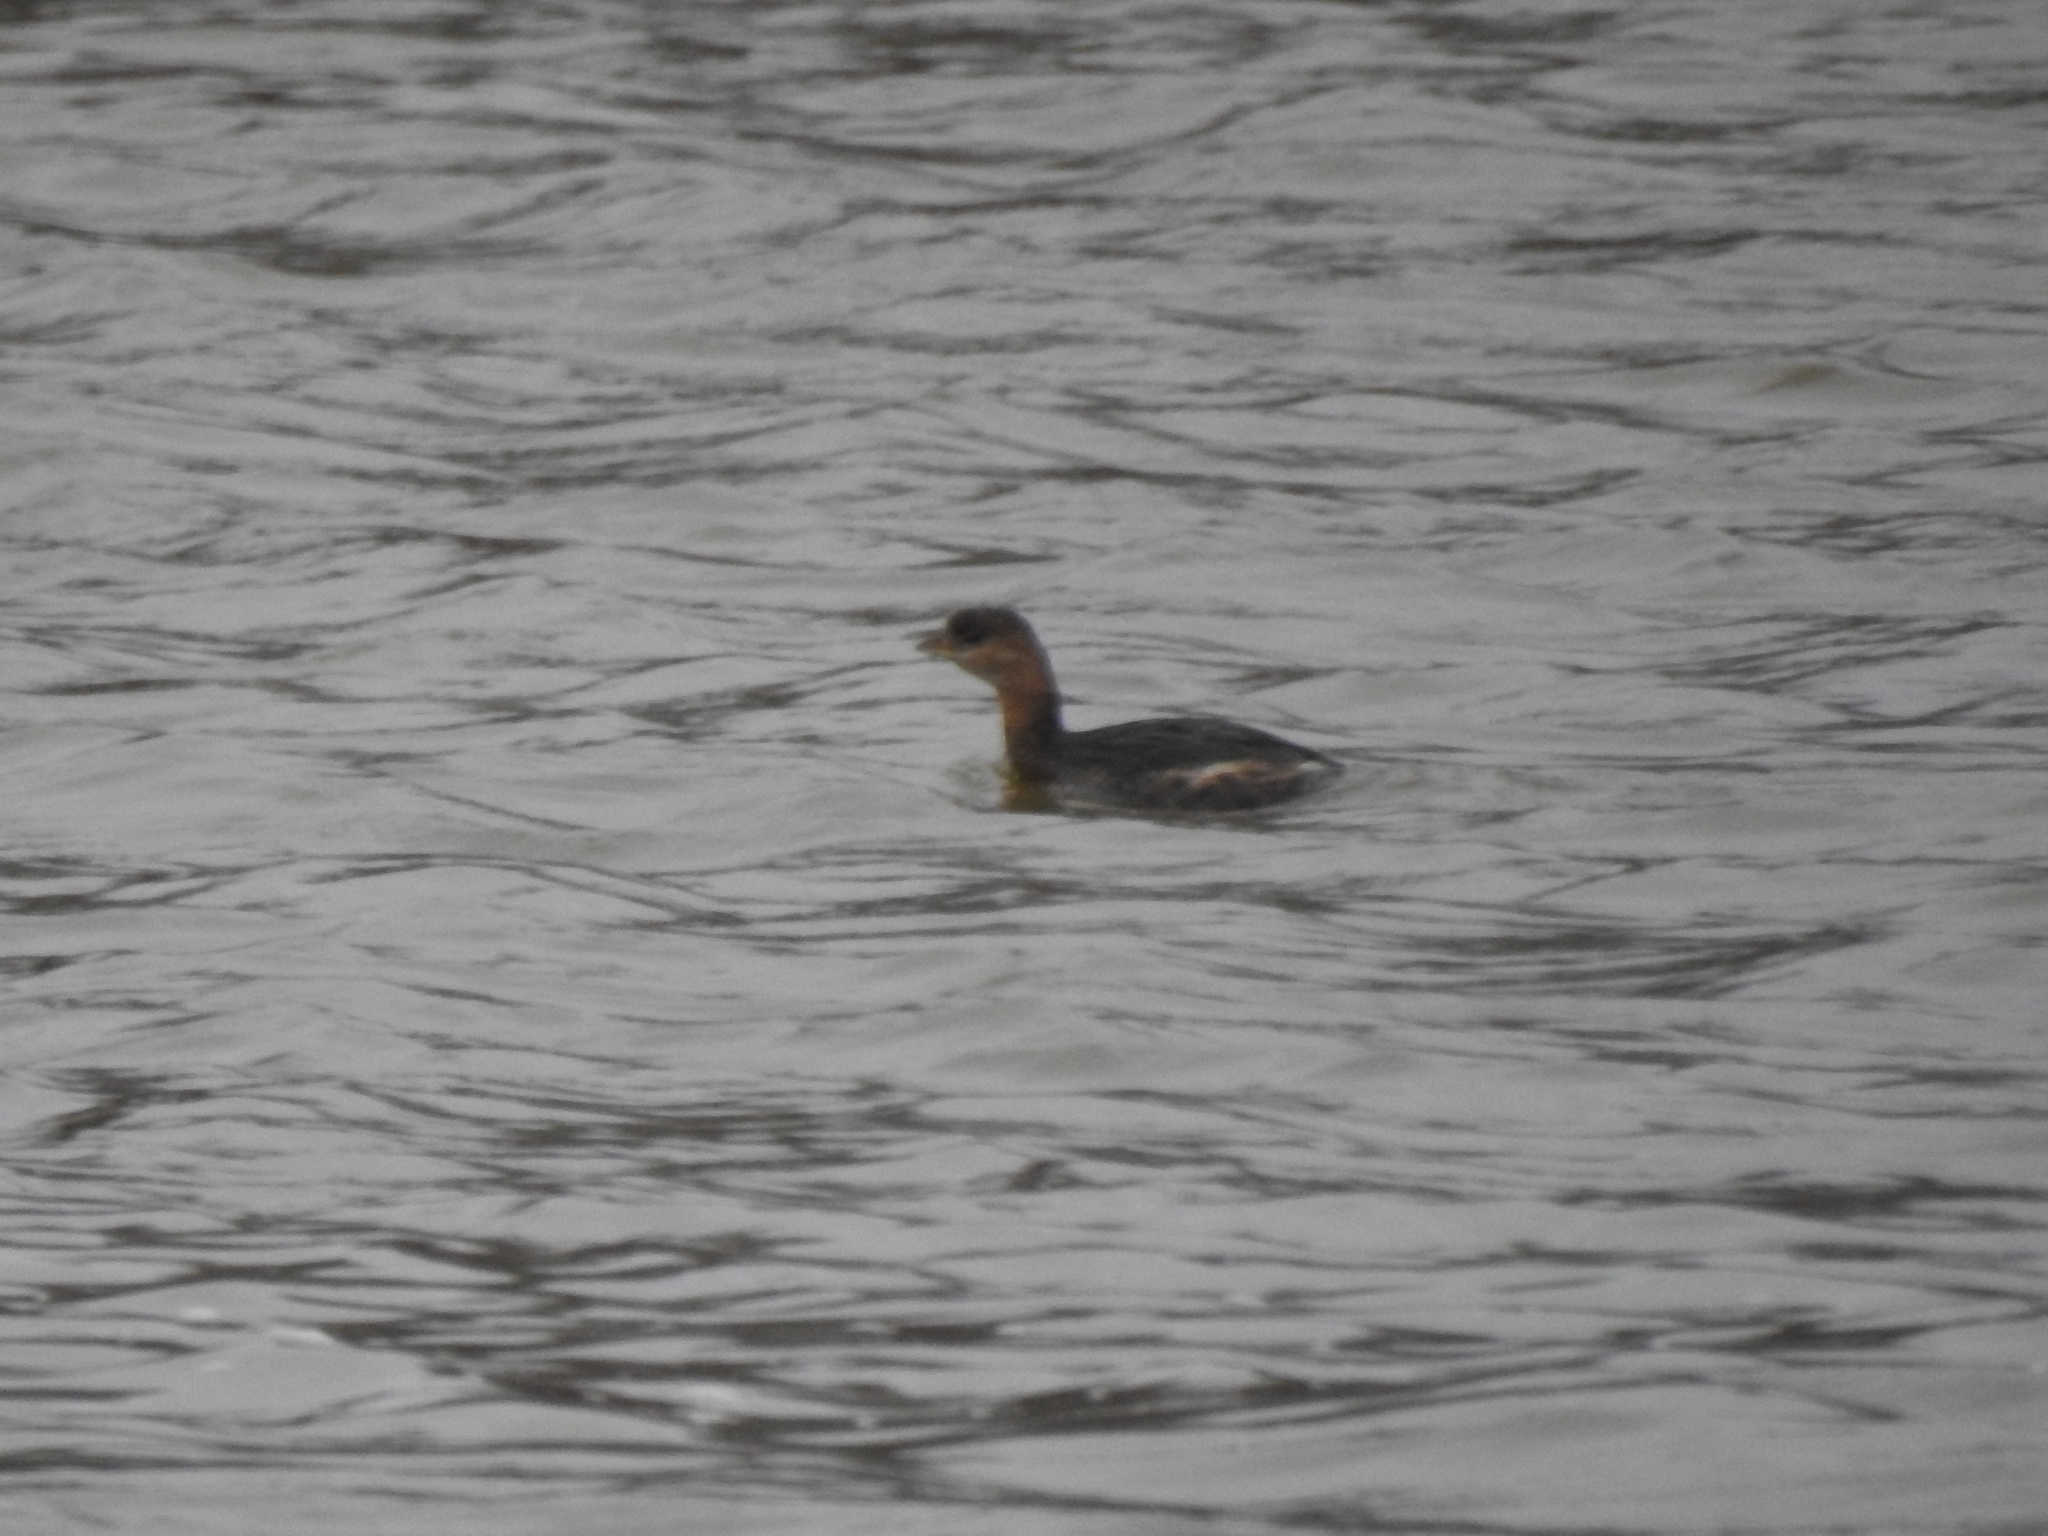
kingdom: Animalia
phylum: Chordata
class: Aves
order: Podicipediformes
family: Podicipedidae
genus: Podilymbus
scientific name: Podilymbus podiceps
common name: Pied-billed grebe
